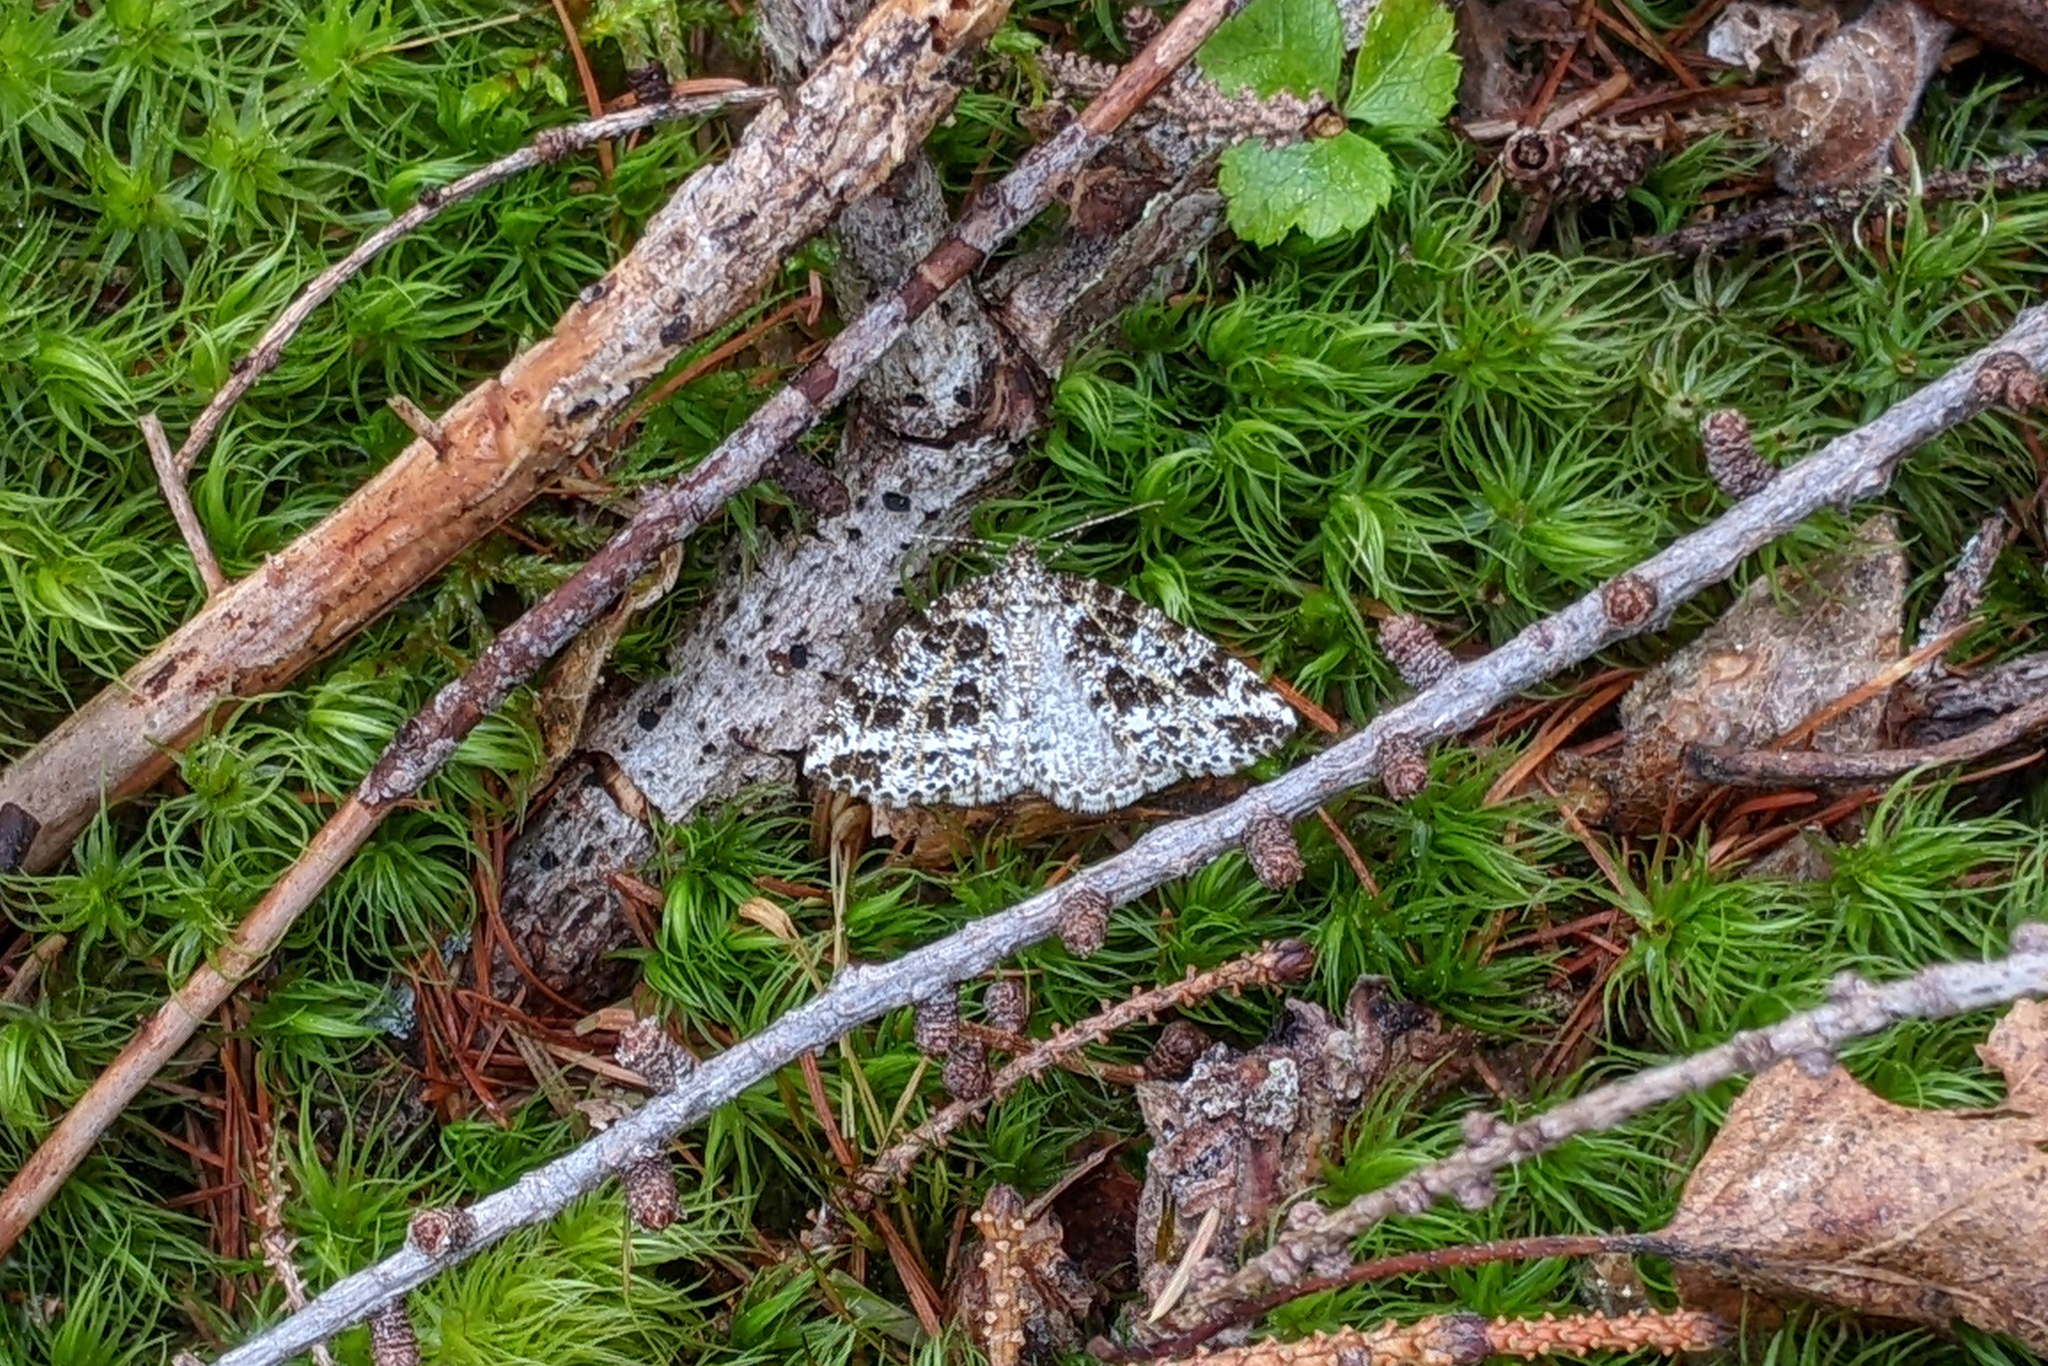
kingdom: Animalia
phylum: Arthropoda
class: Insecta
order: Lepidoptera
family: Geometridae
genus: Orthofidonia
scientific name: Orthofidonia flavivenata
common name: Yellow-veined geometer moth
